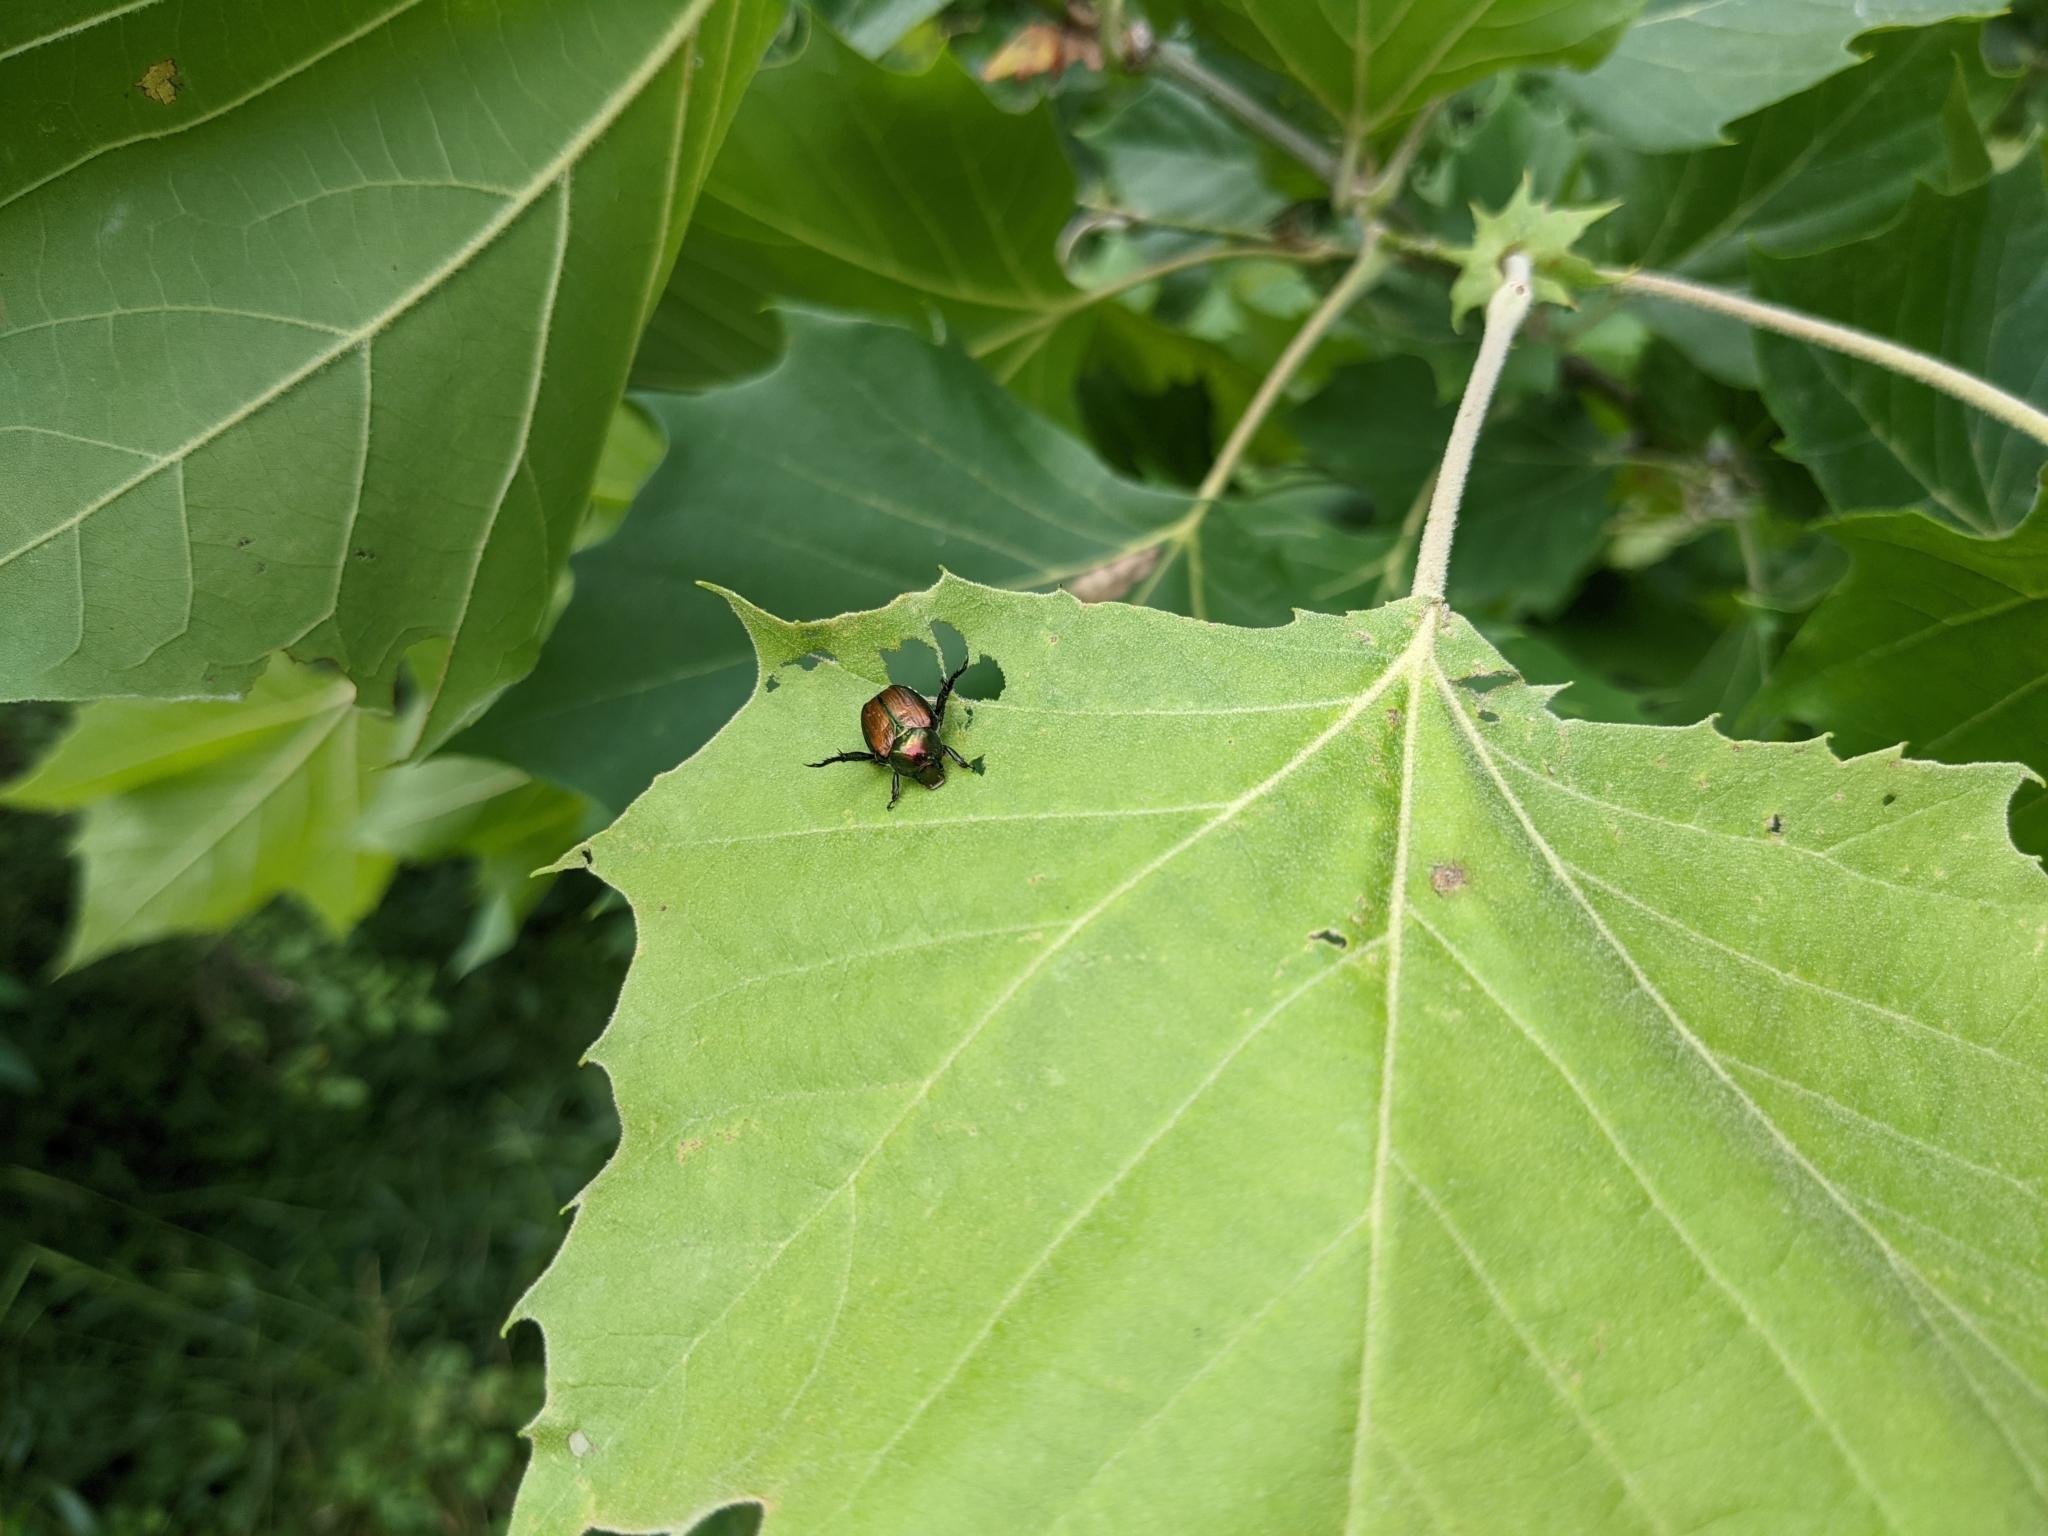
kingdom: Animalia
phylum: Arthropoda
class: Insecta
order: Coleoptera
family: Scarabaeidae
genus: Popillia
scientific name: Popillia japonica
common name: Japanese beetle
